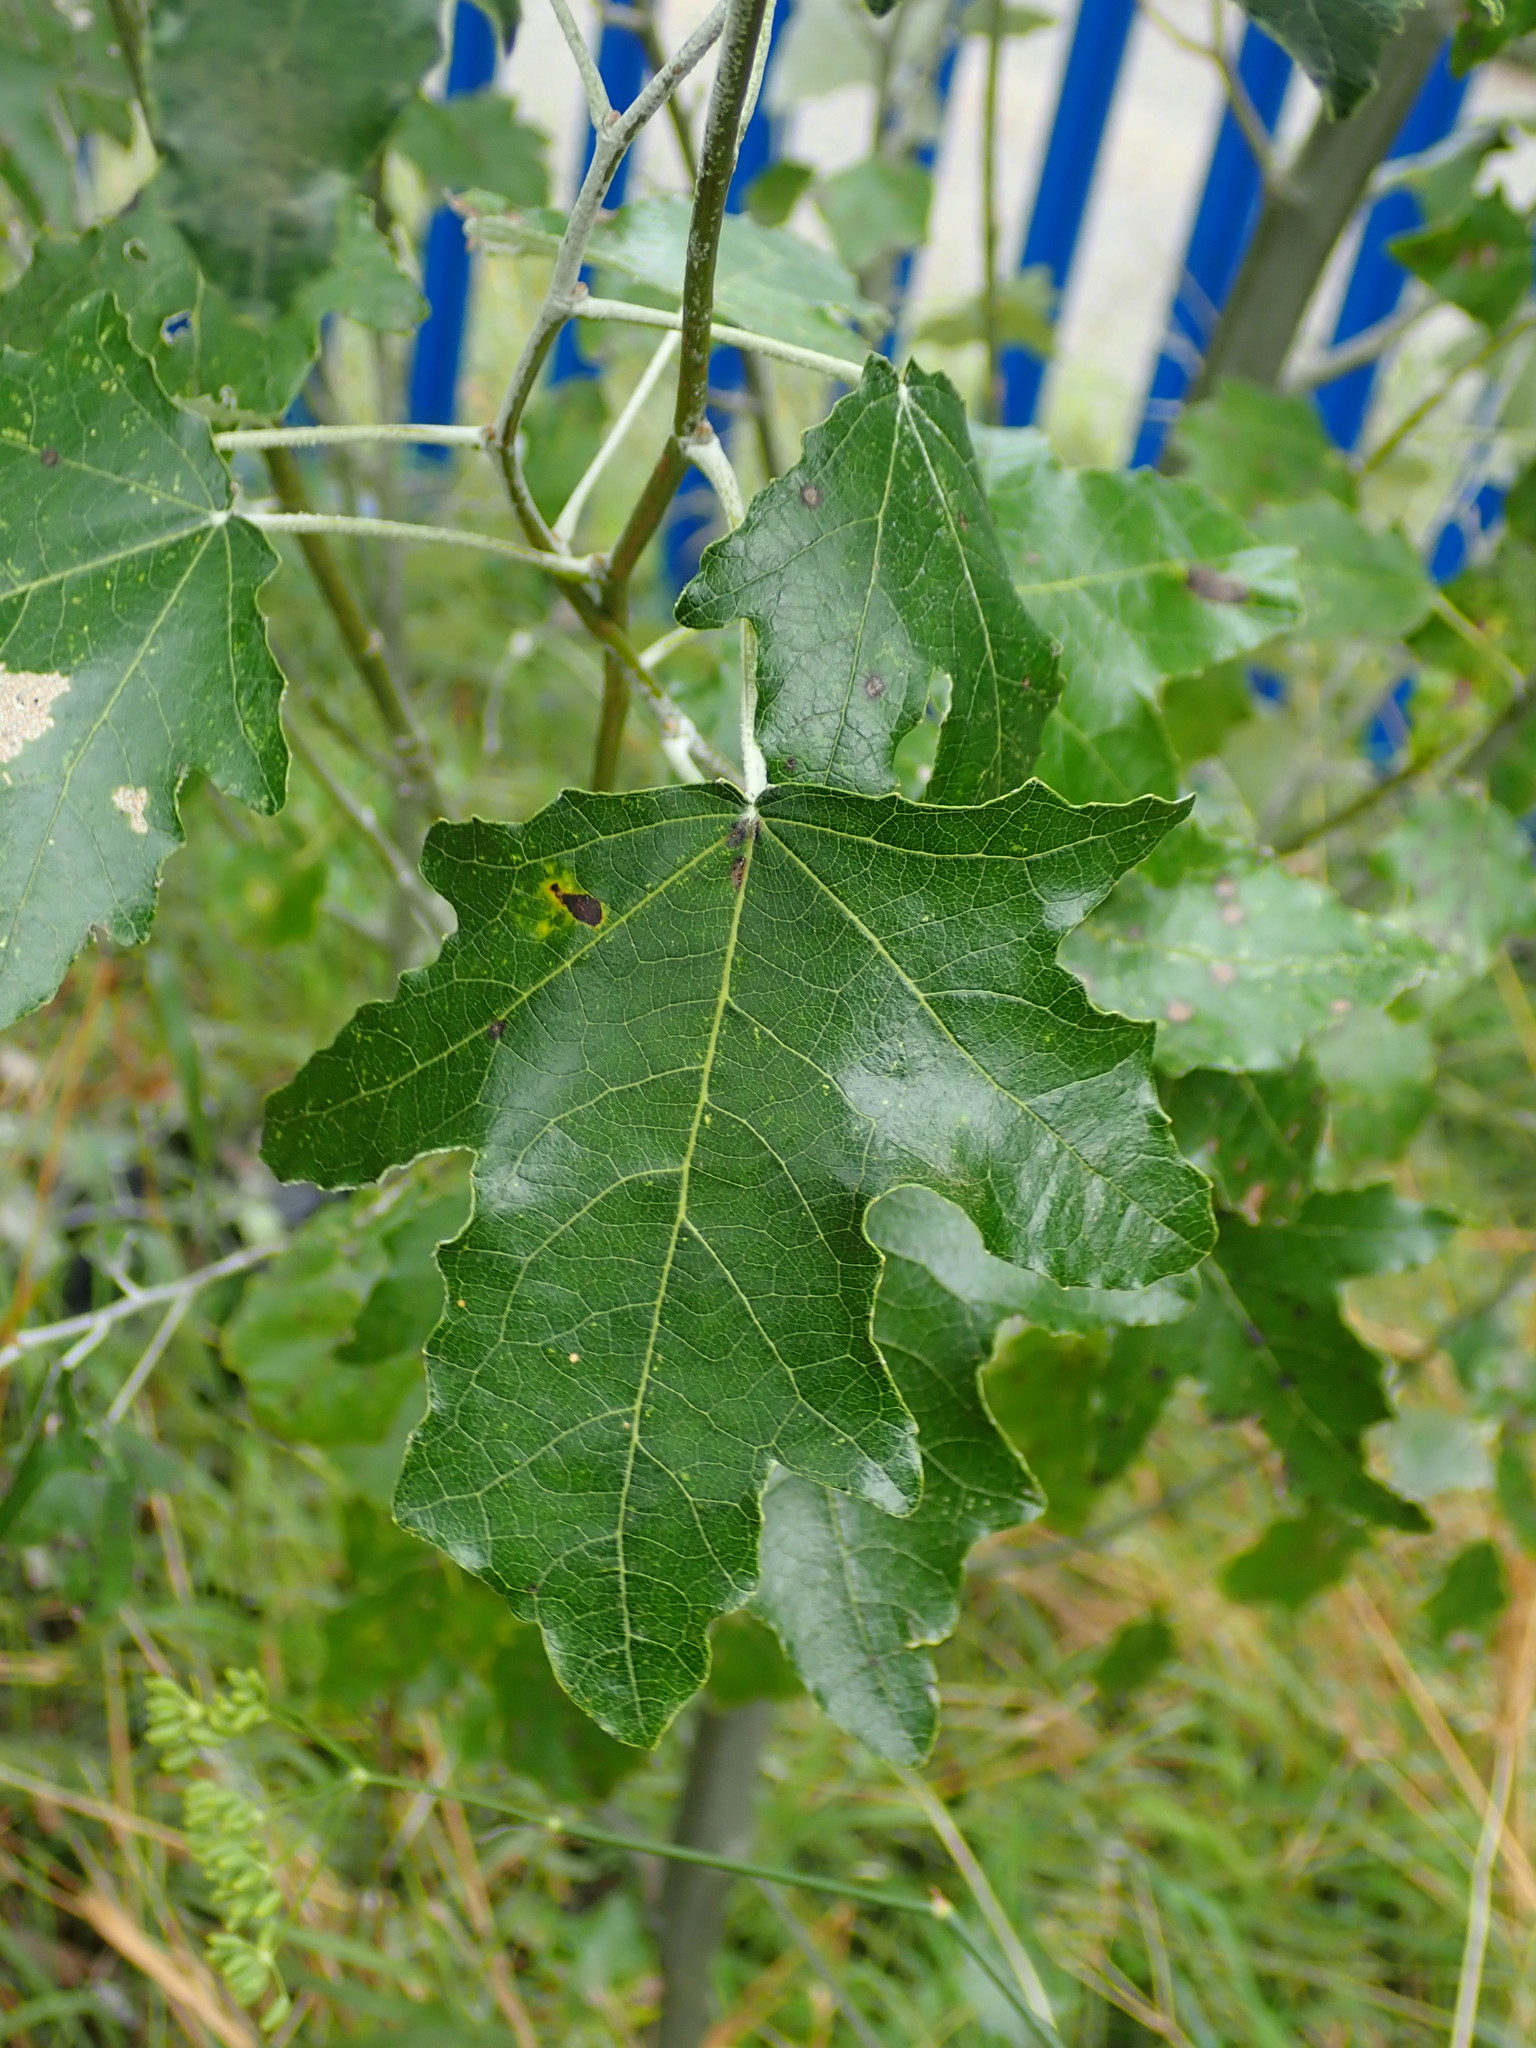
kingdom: Plantae
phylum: Tracheophyta
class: Magnoliopsida
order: Malpighiales
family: Salicaceae
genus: Populus
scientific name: Populus alba
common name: White poplar
